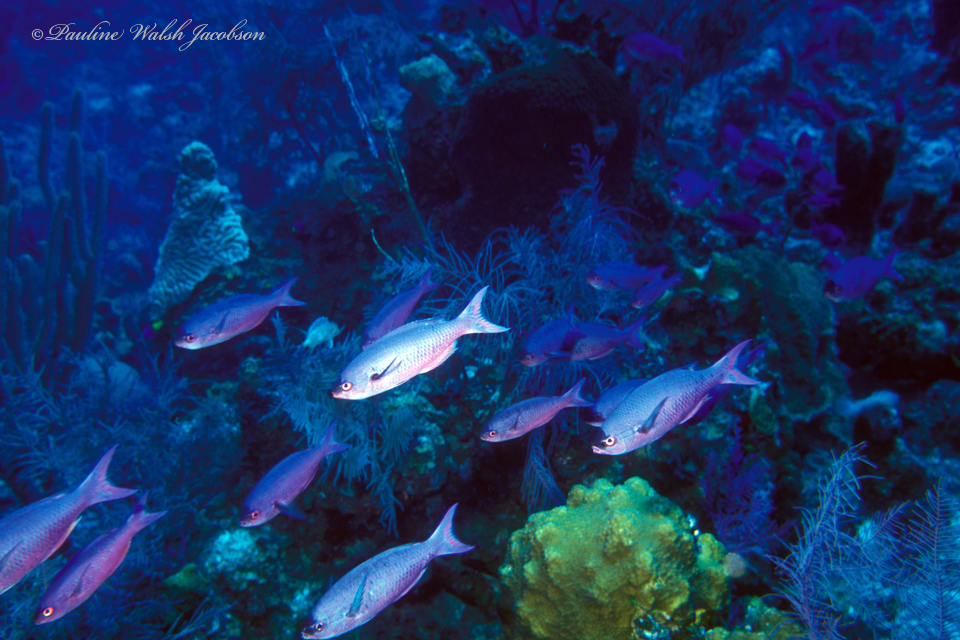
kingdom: Animalia
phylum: Chordata
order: Perciformes
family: Labridae
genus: Bodianus
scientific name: Bodianus
